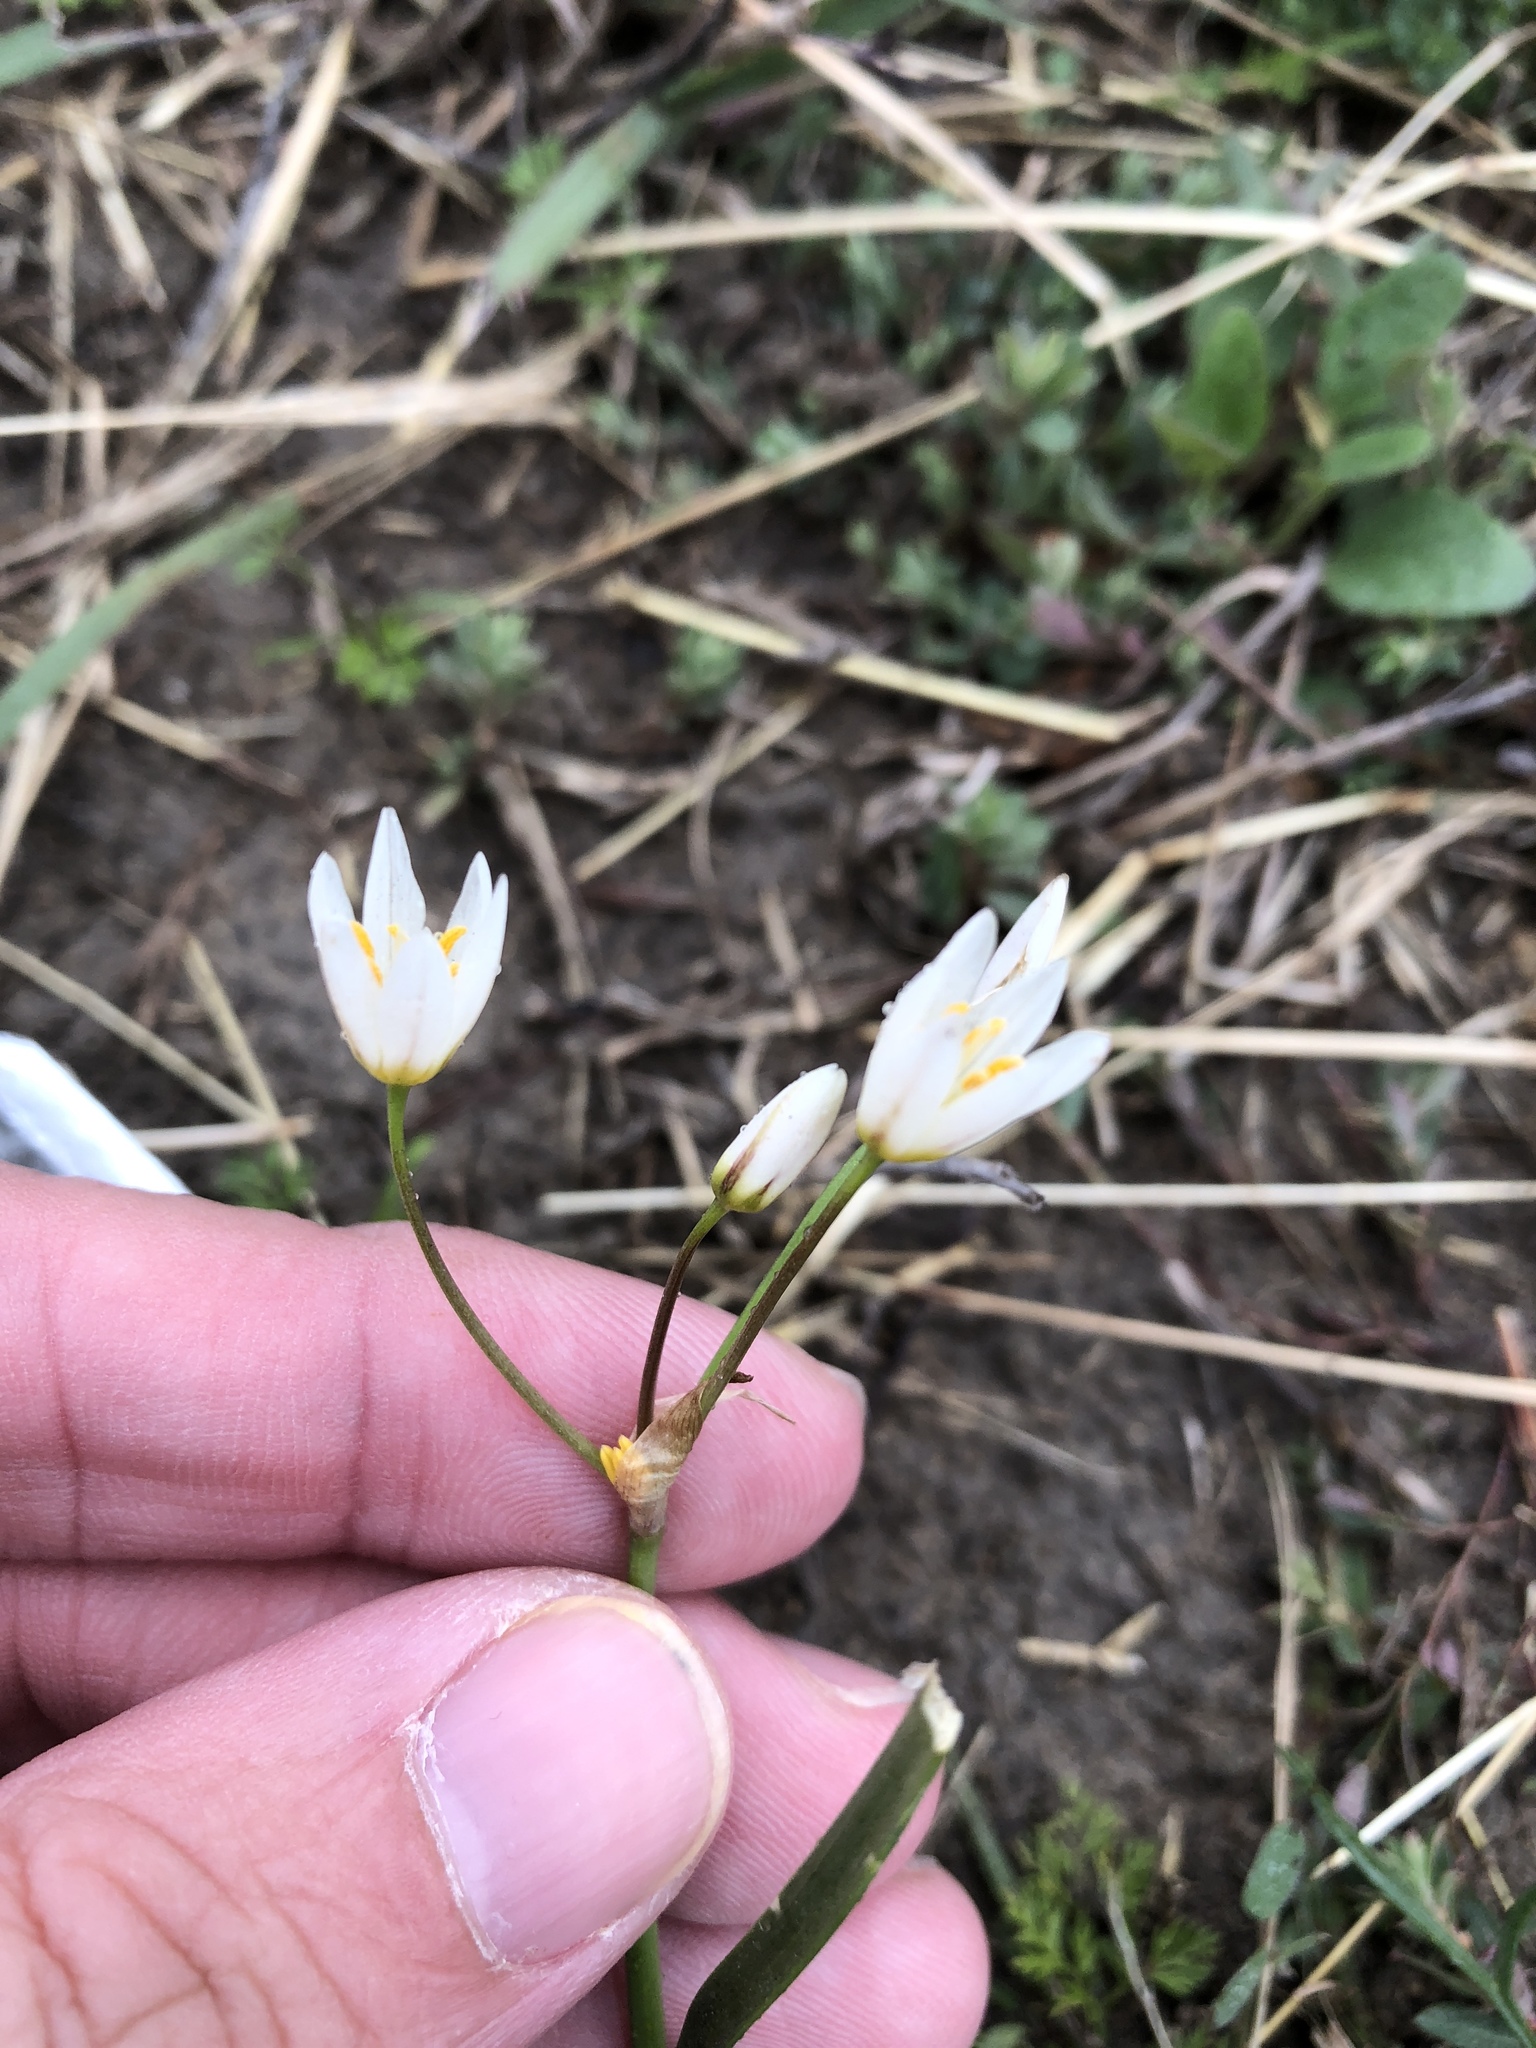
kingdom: Plantae
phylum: Tracheophyta
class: Liliopsida
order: Asparagales
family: Amaryllidaceae
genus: Nothoscordum
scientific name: Nothoscordum bivalve
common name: Crow-poison
